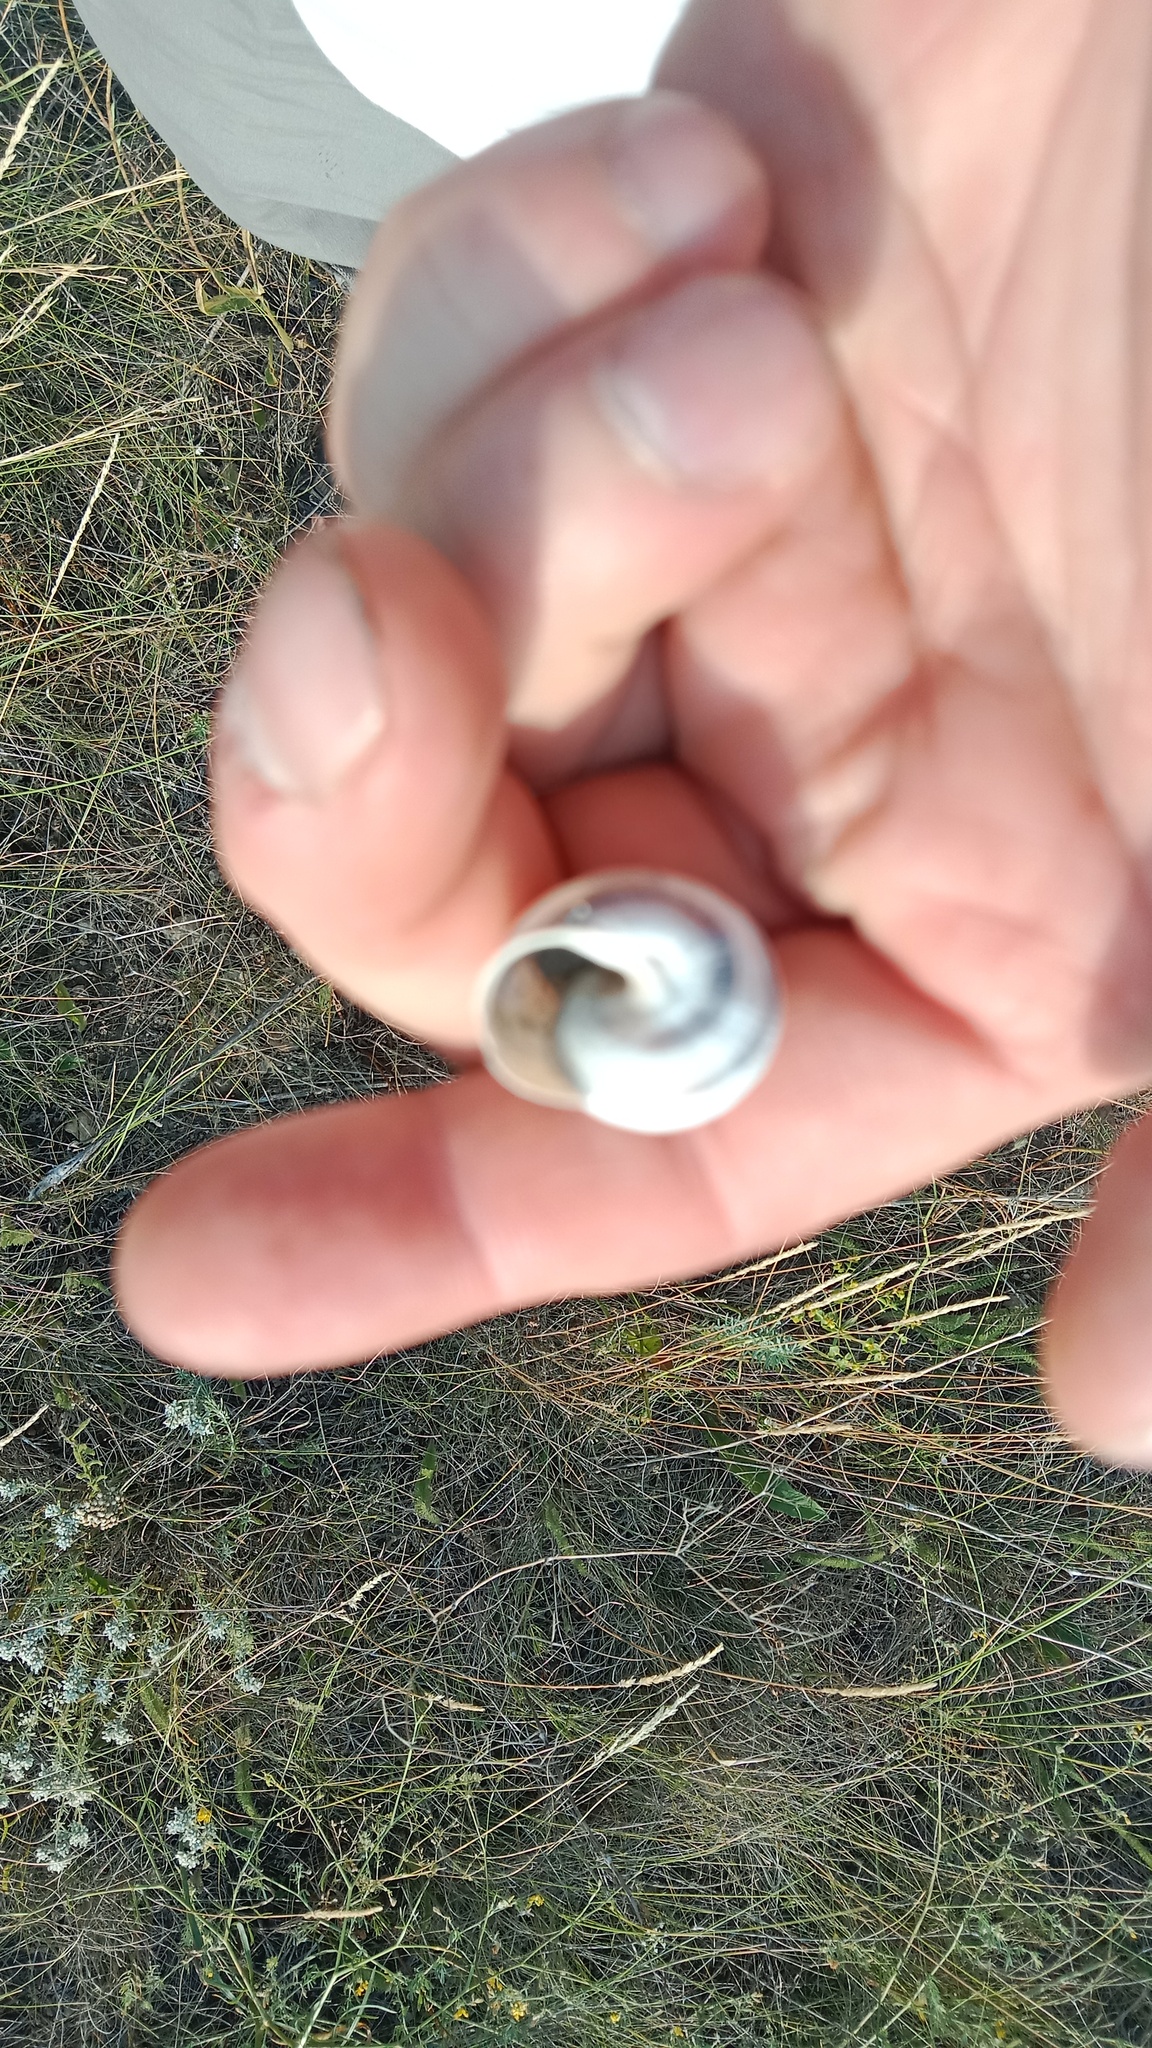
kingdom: Animalia
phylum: Mollusca
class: Gastropoda
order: Stylommatophora
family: Helicidae
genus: Caucasotachea
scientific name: Caucasotachea vindobonensis
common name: European helicid land snail
